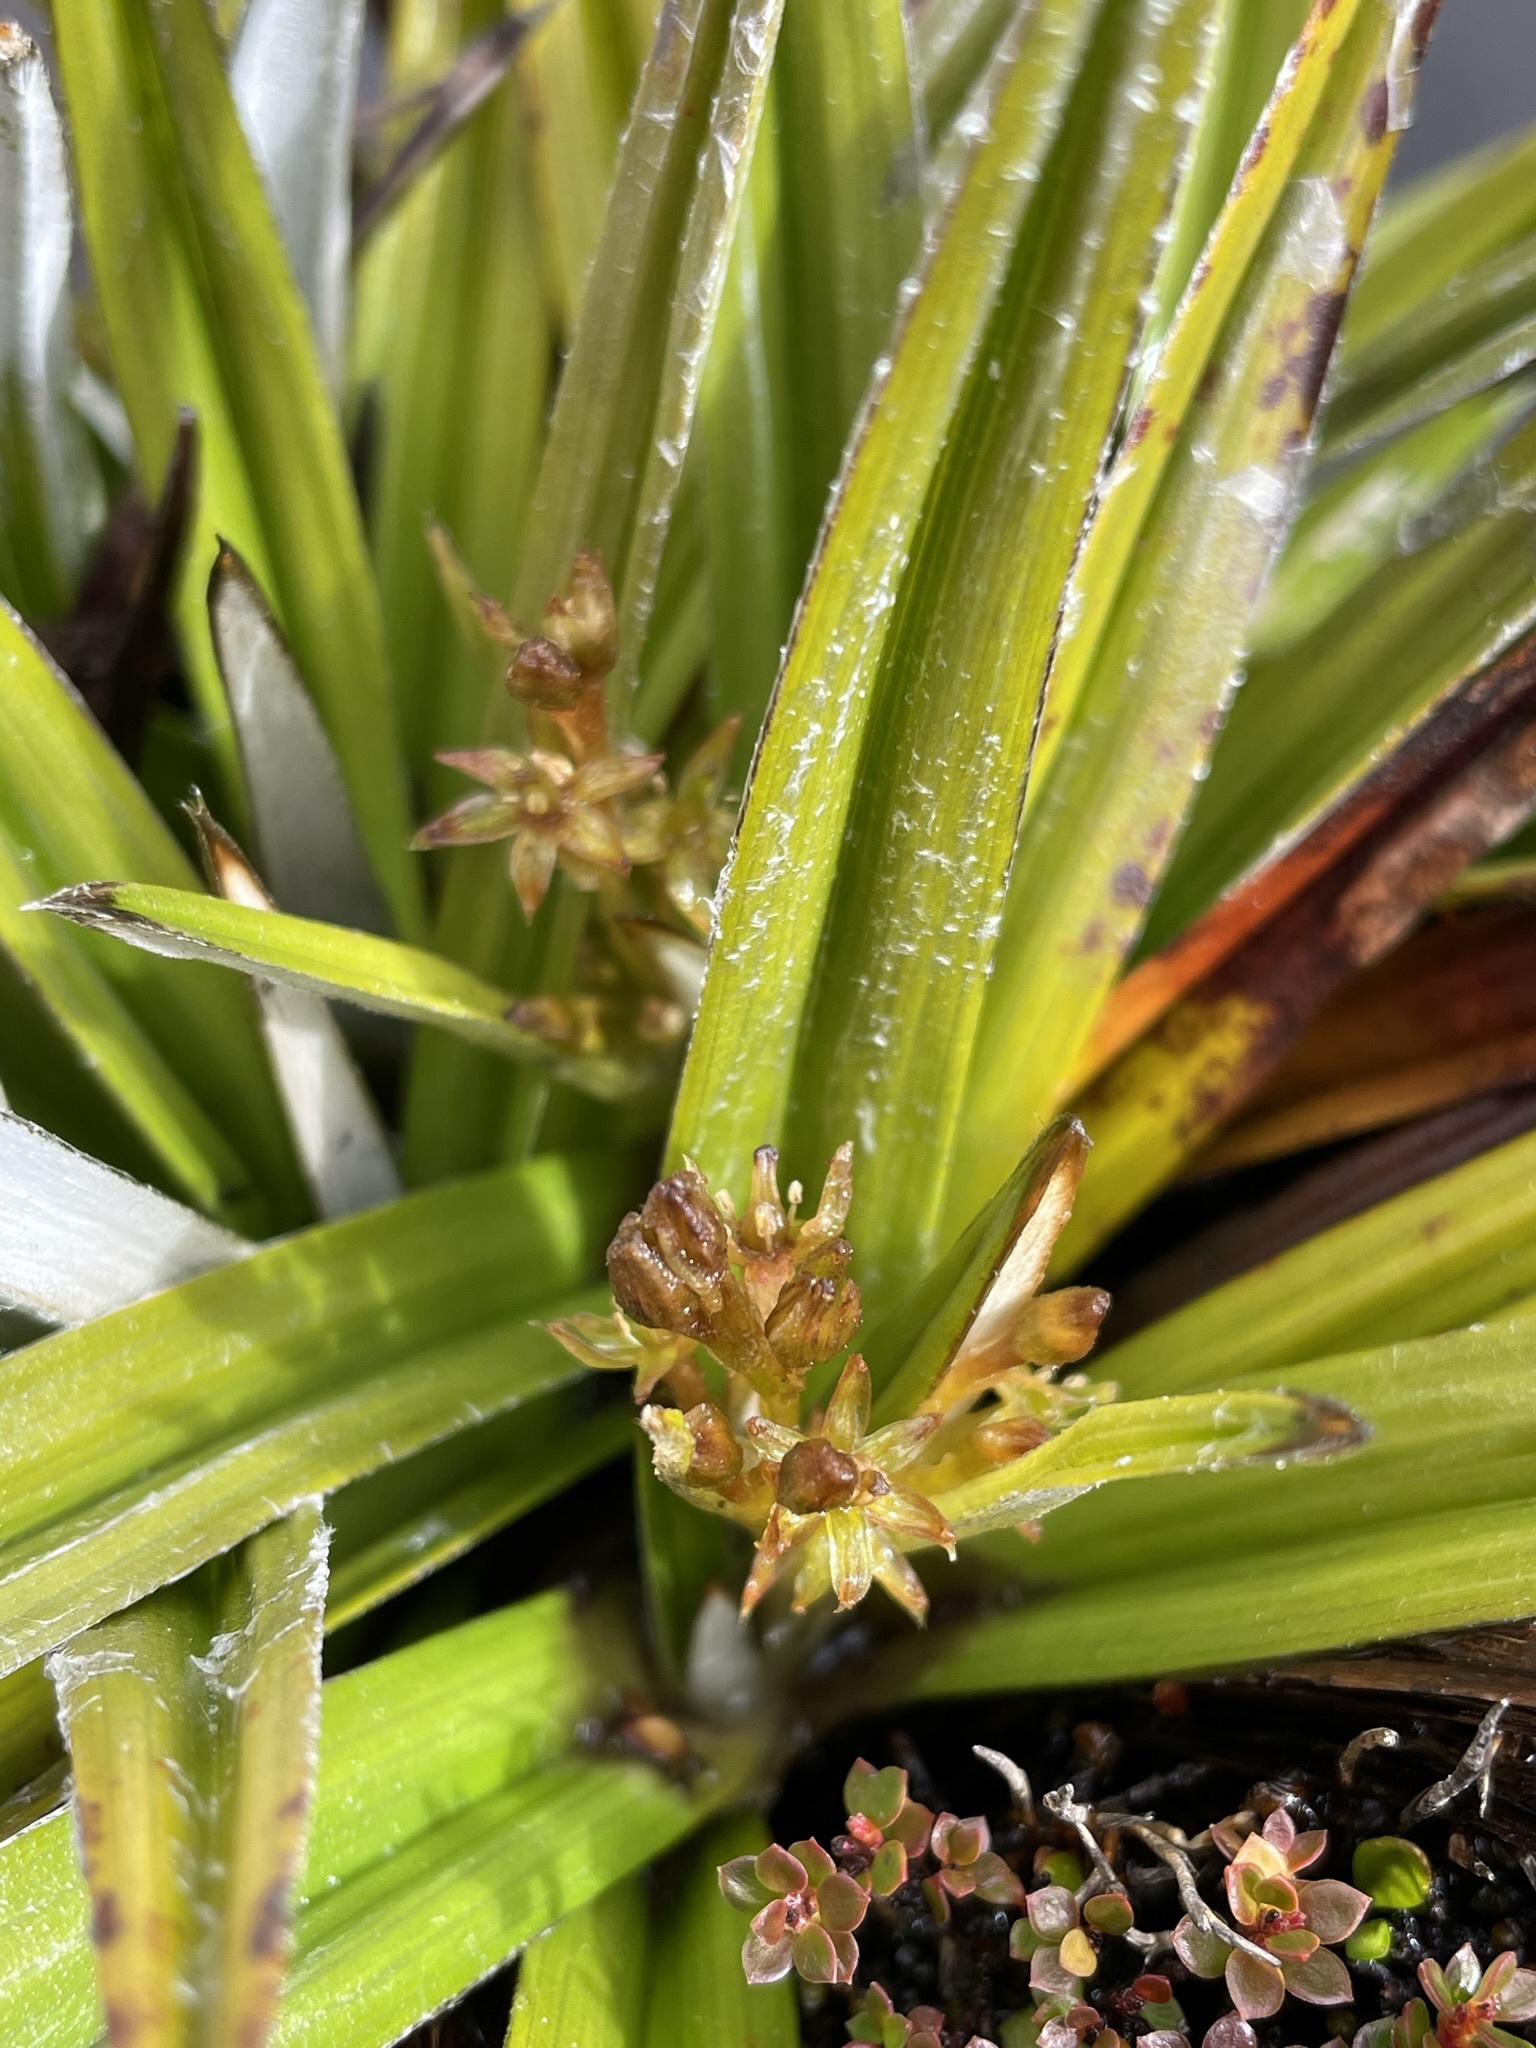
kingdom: Plantae
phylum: Tracheophyta
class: Liliopsida
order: Asparagales
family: Asteliaceae
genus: Astelia
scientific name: Astelia alpina
